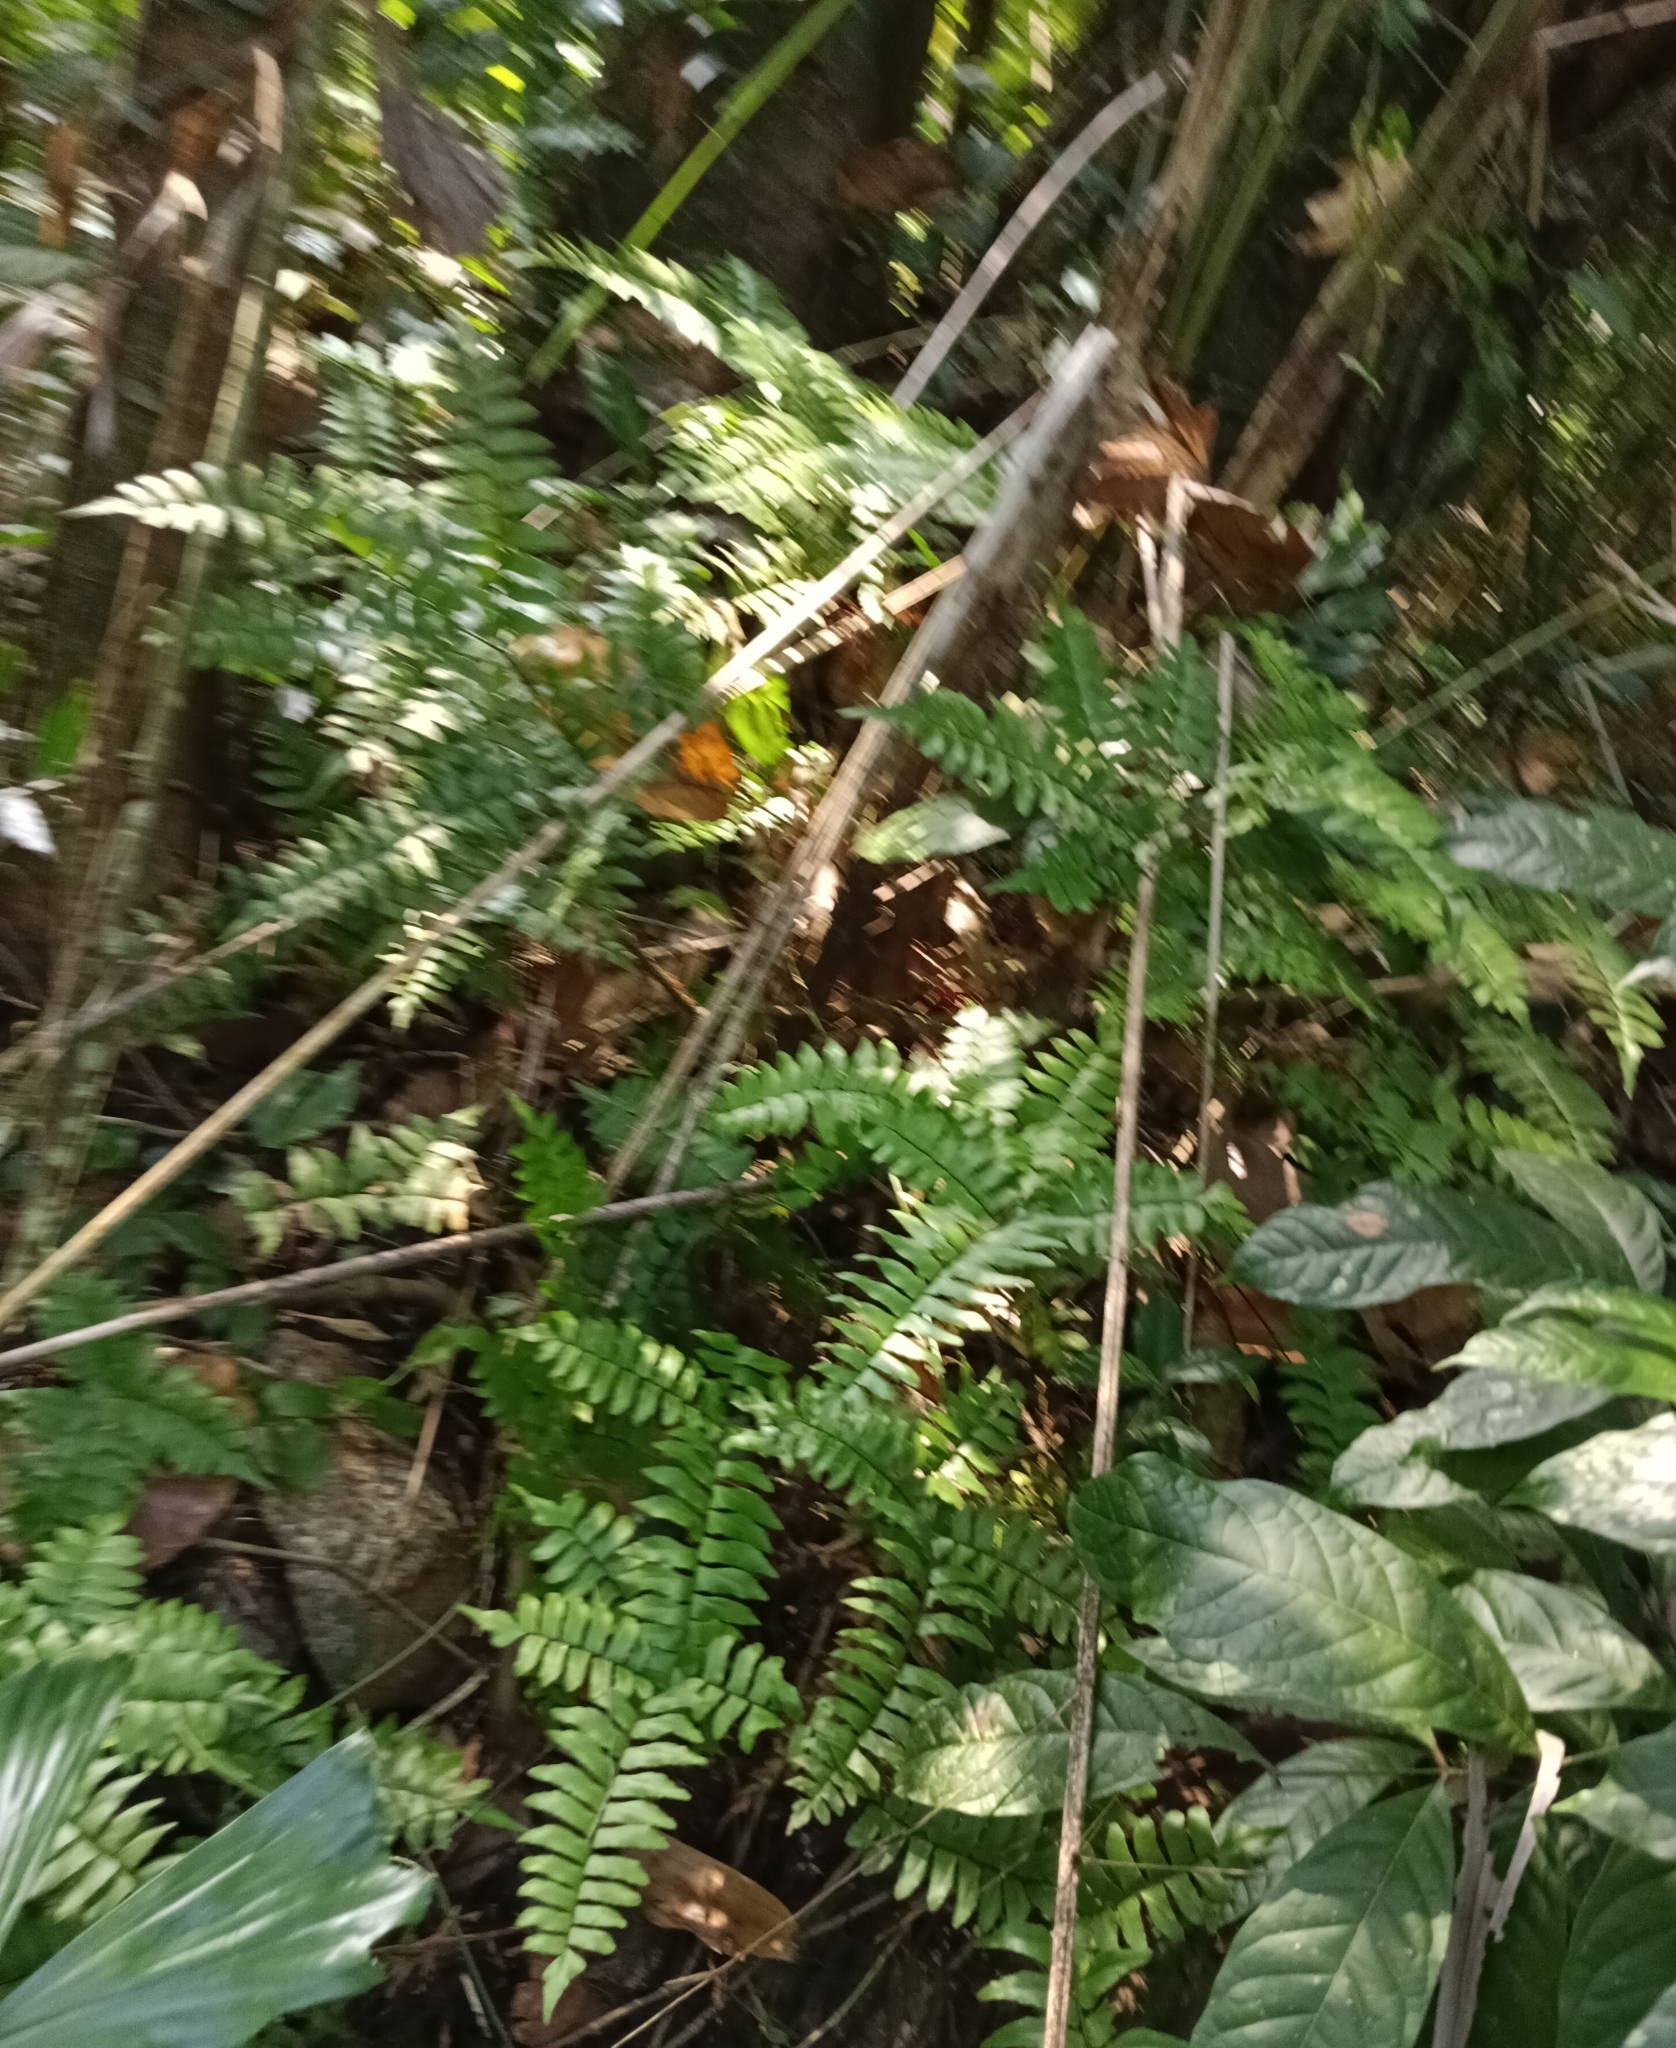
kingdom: Plantae
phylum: Tracheophyta
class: Polypodiopsida
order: Polypodiales
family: Pteridaceae
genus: Adiantum
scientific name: Adiantum latifolium
